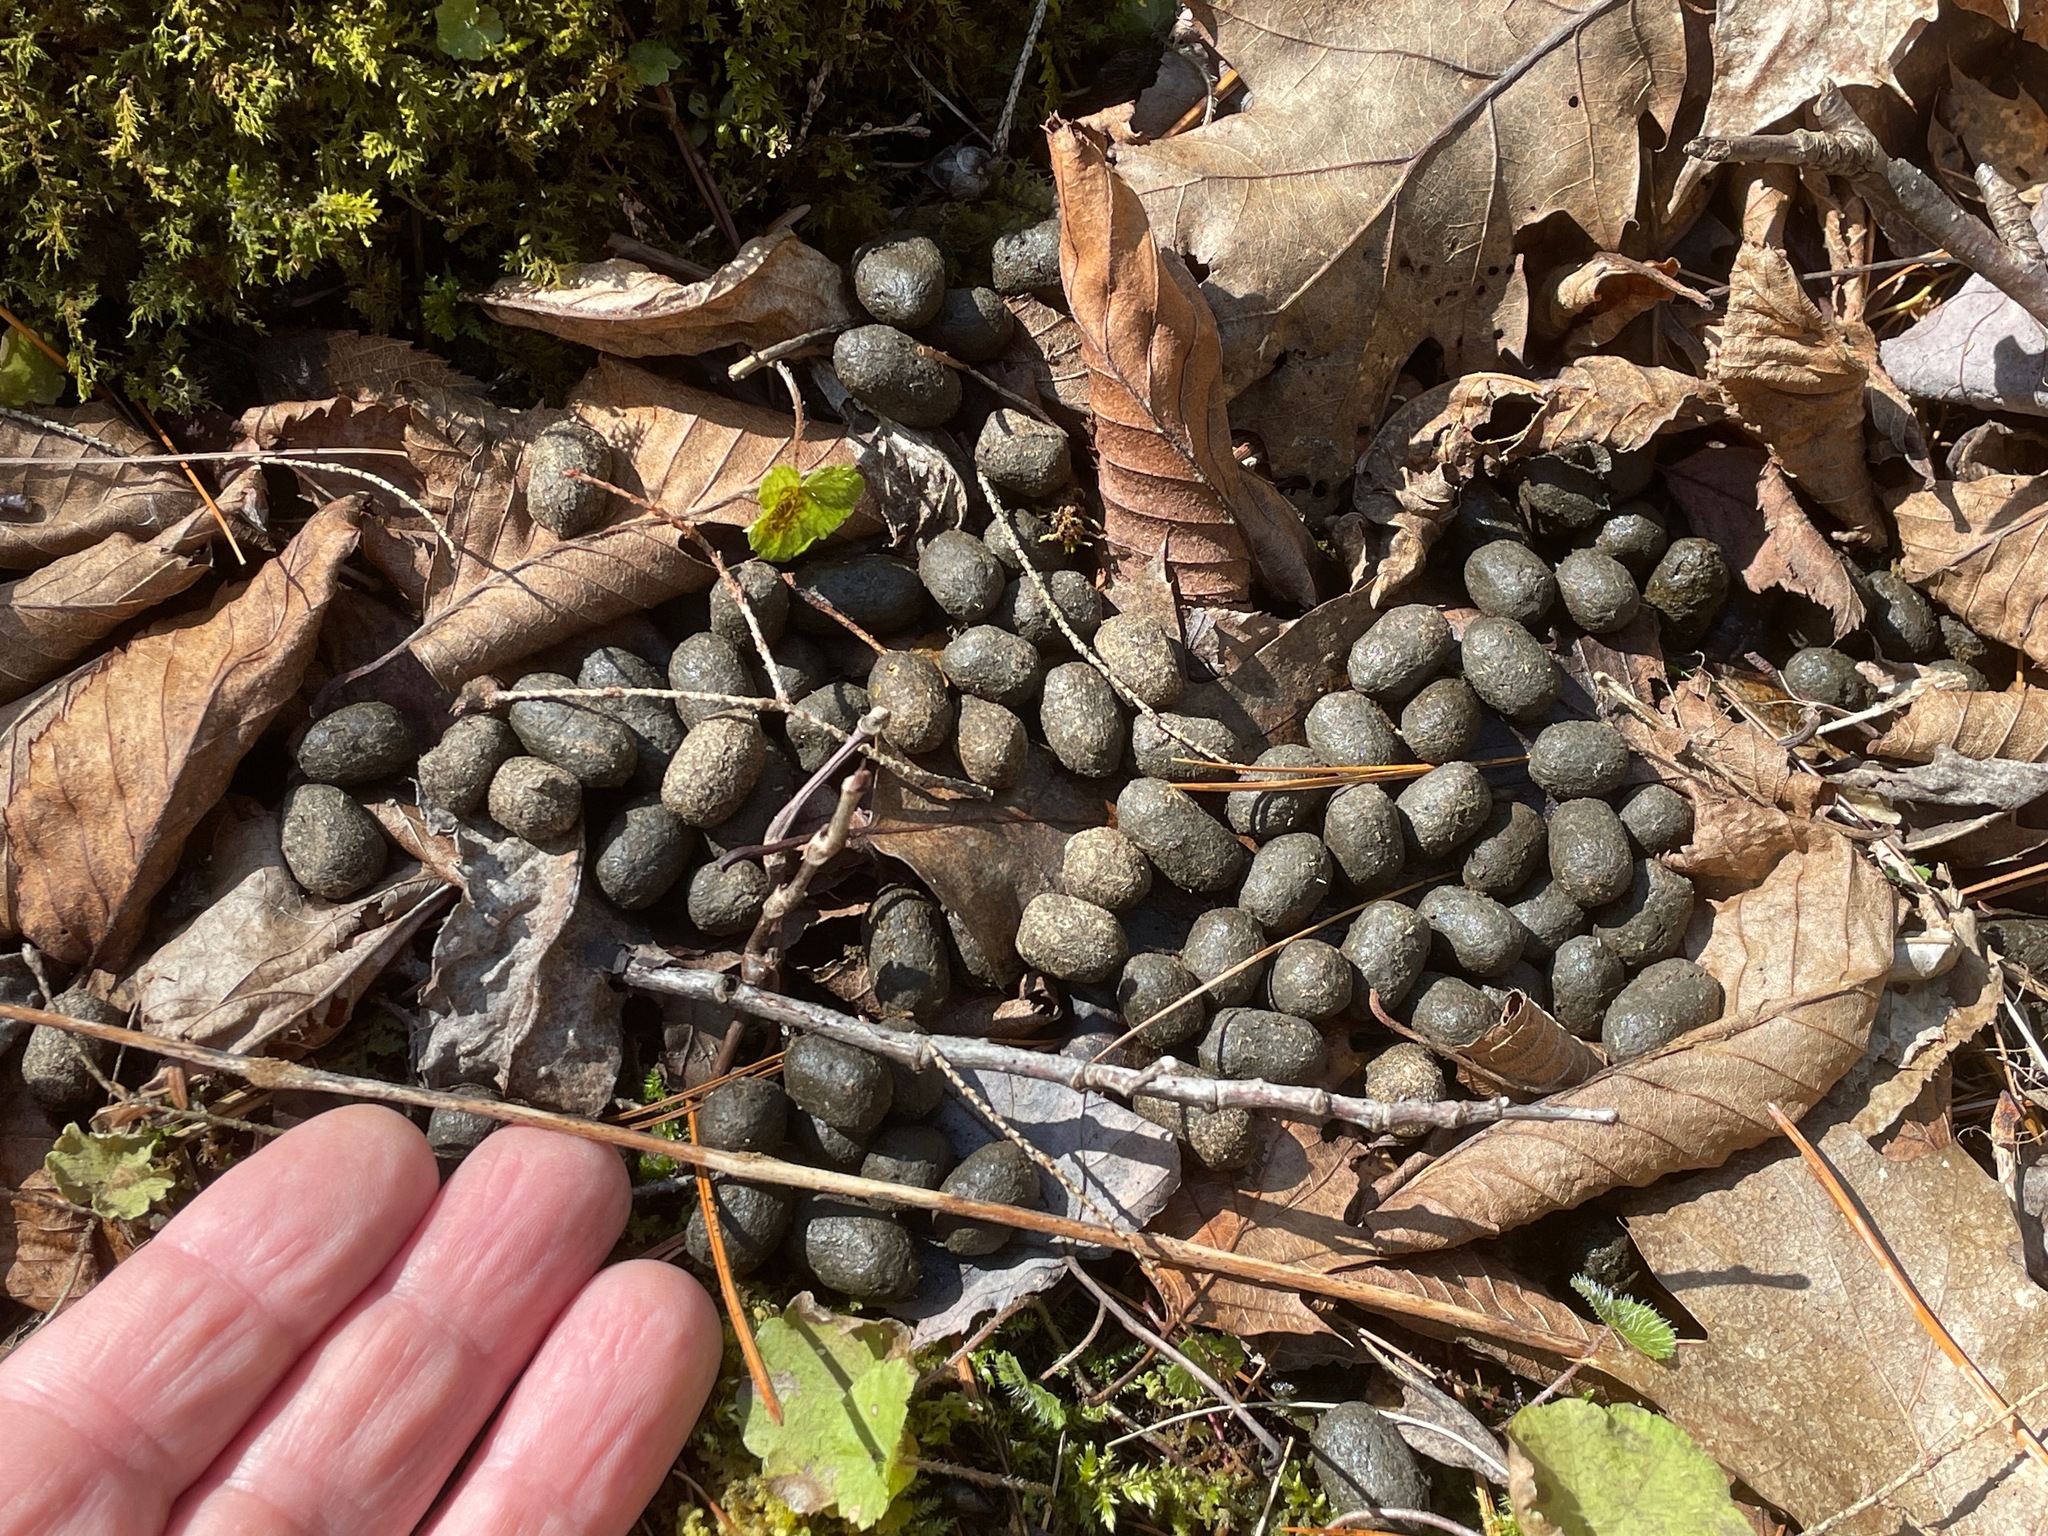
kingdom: Animalia
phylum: Chordata
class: Mammalia
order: Artiodactyla
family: Cervidae
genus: Odocoileus
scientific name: Odocoileus virginianus
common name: White-tailed deer
